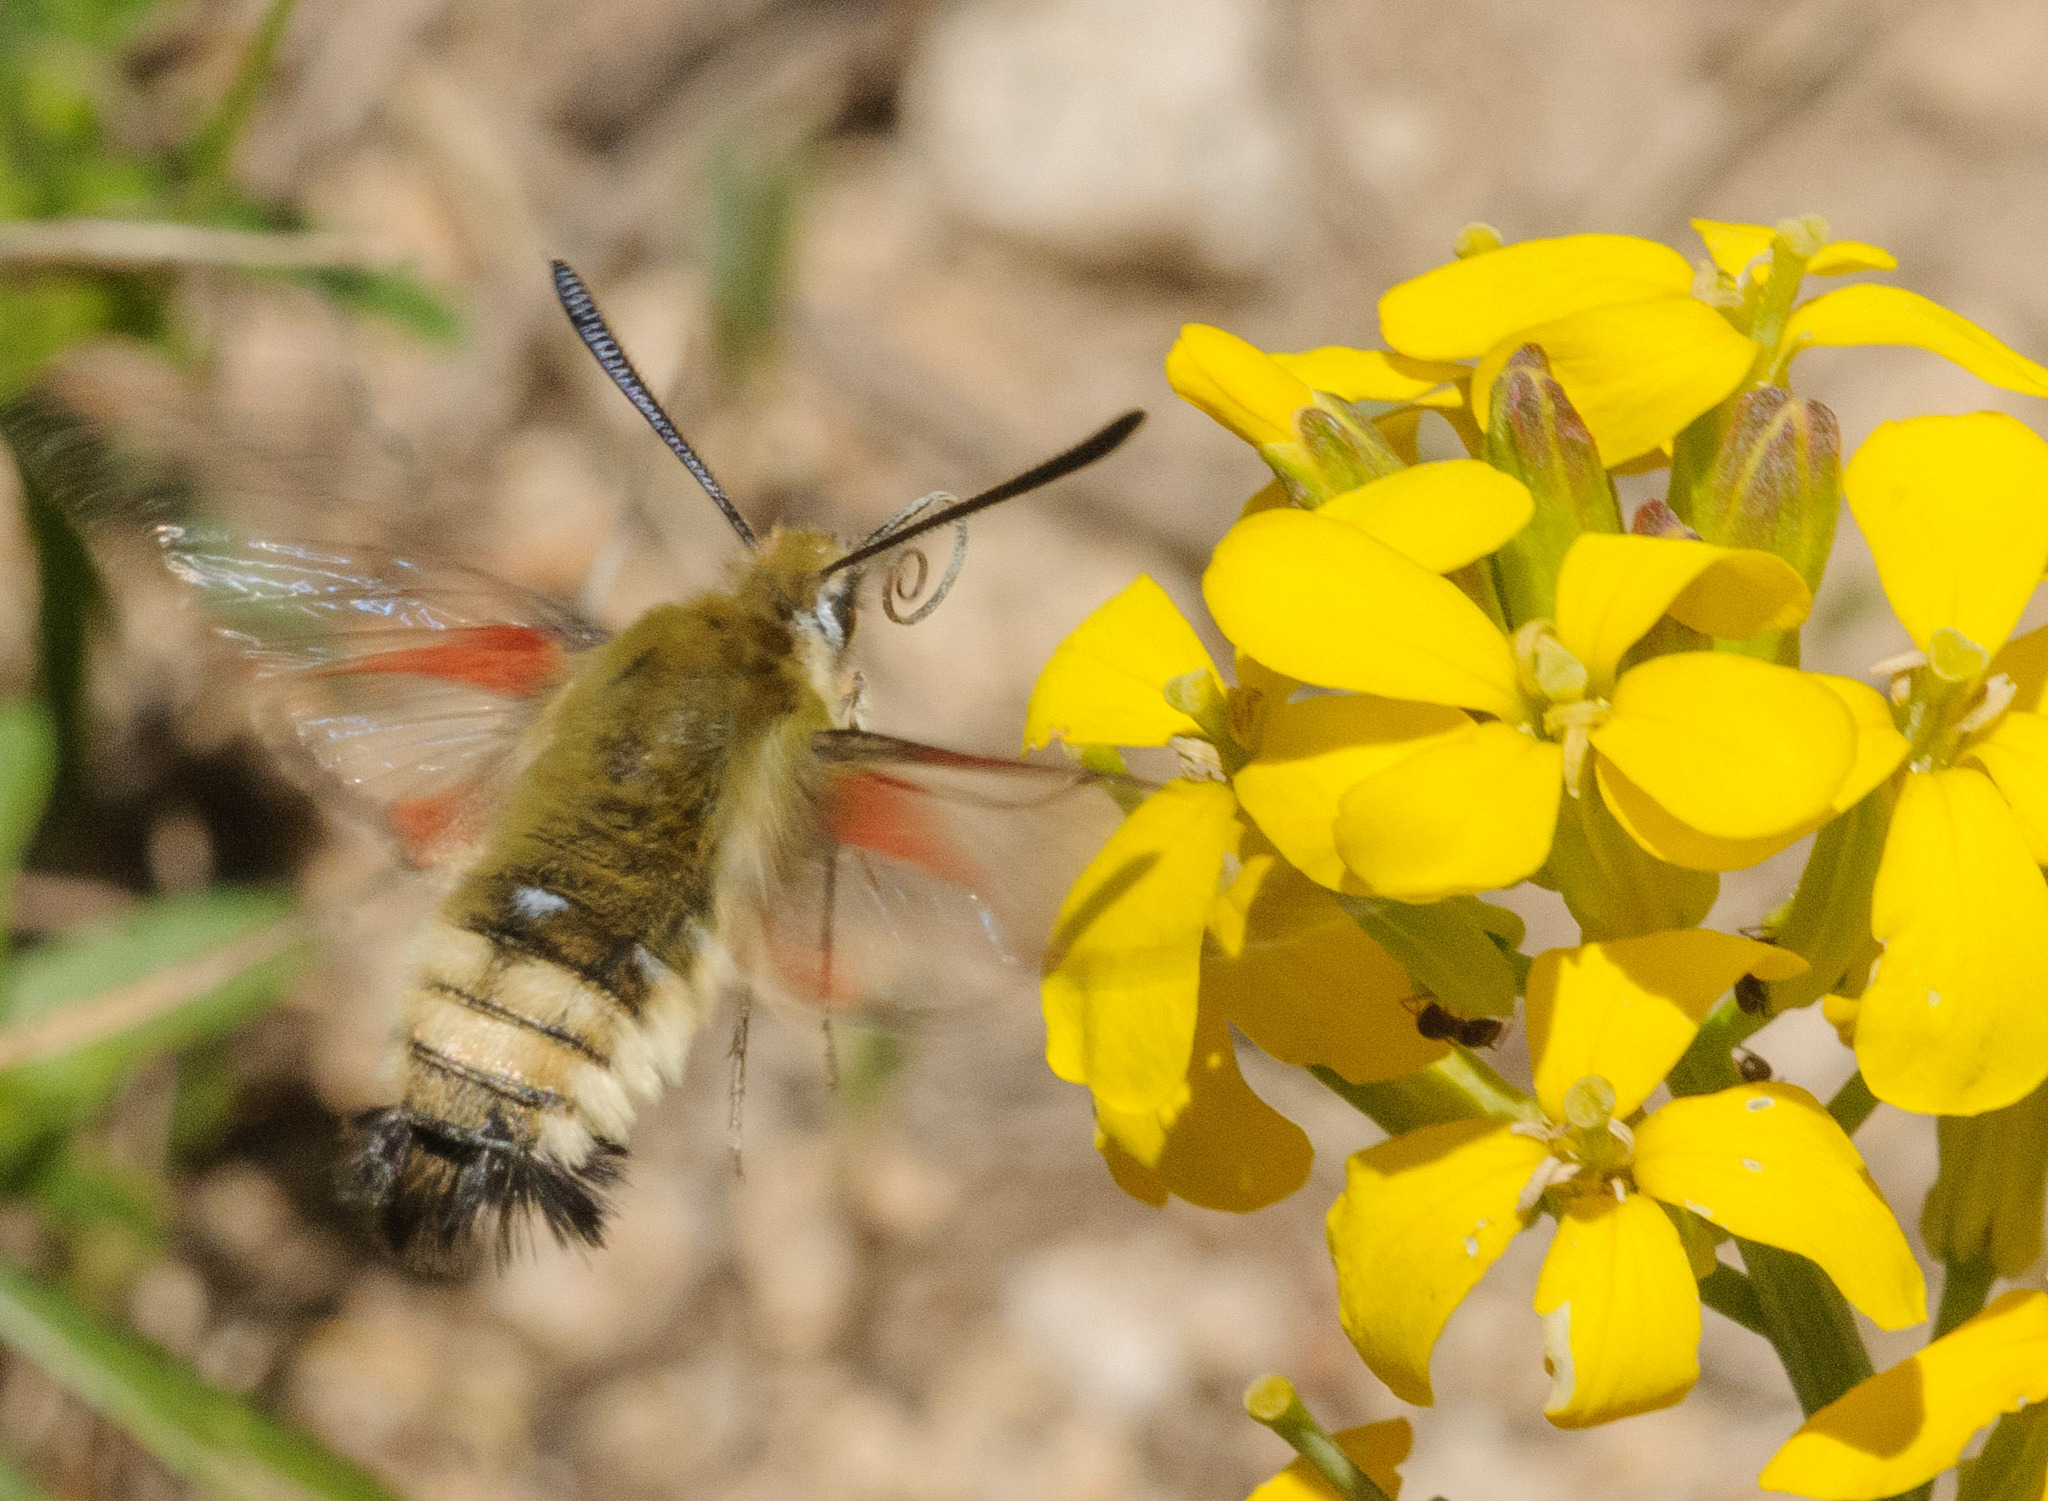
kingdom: Animalia
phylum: Arthropoda
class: Insecta
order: Lepidoptera
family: Sphingidae
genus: Hemaris
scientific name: Hemaris thetis
